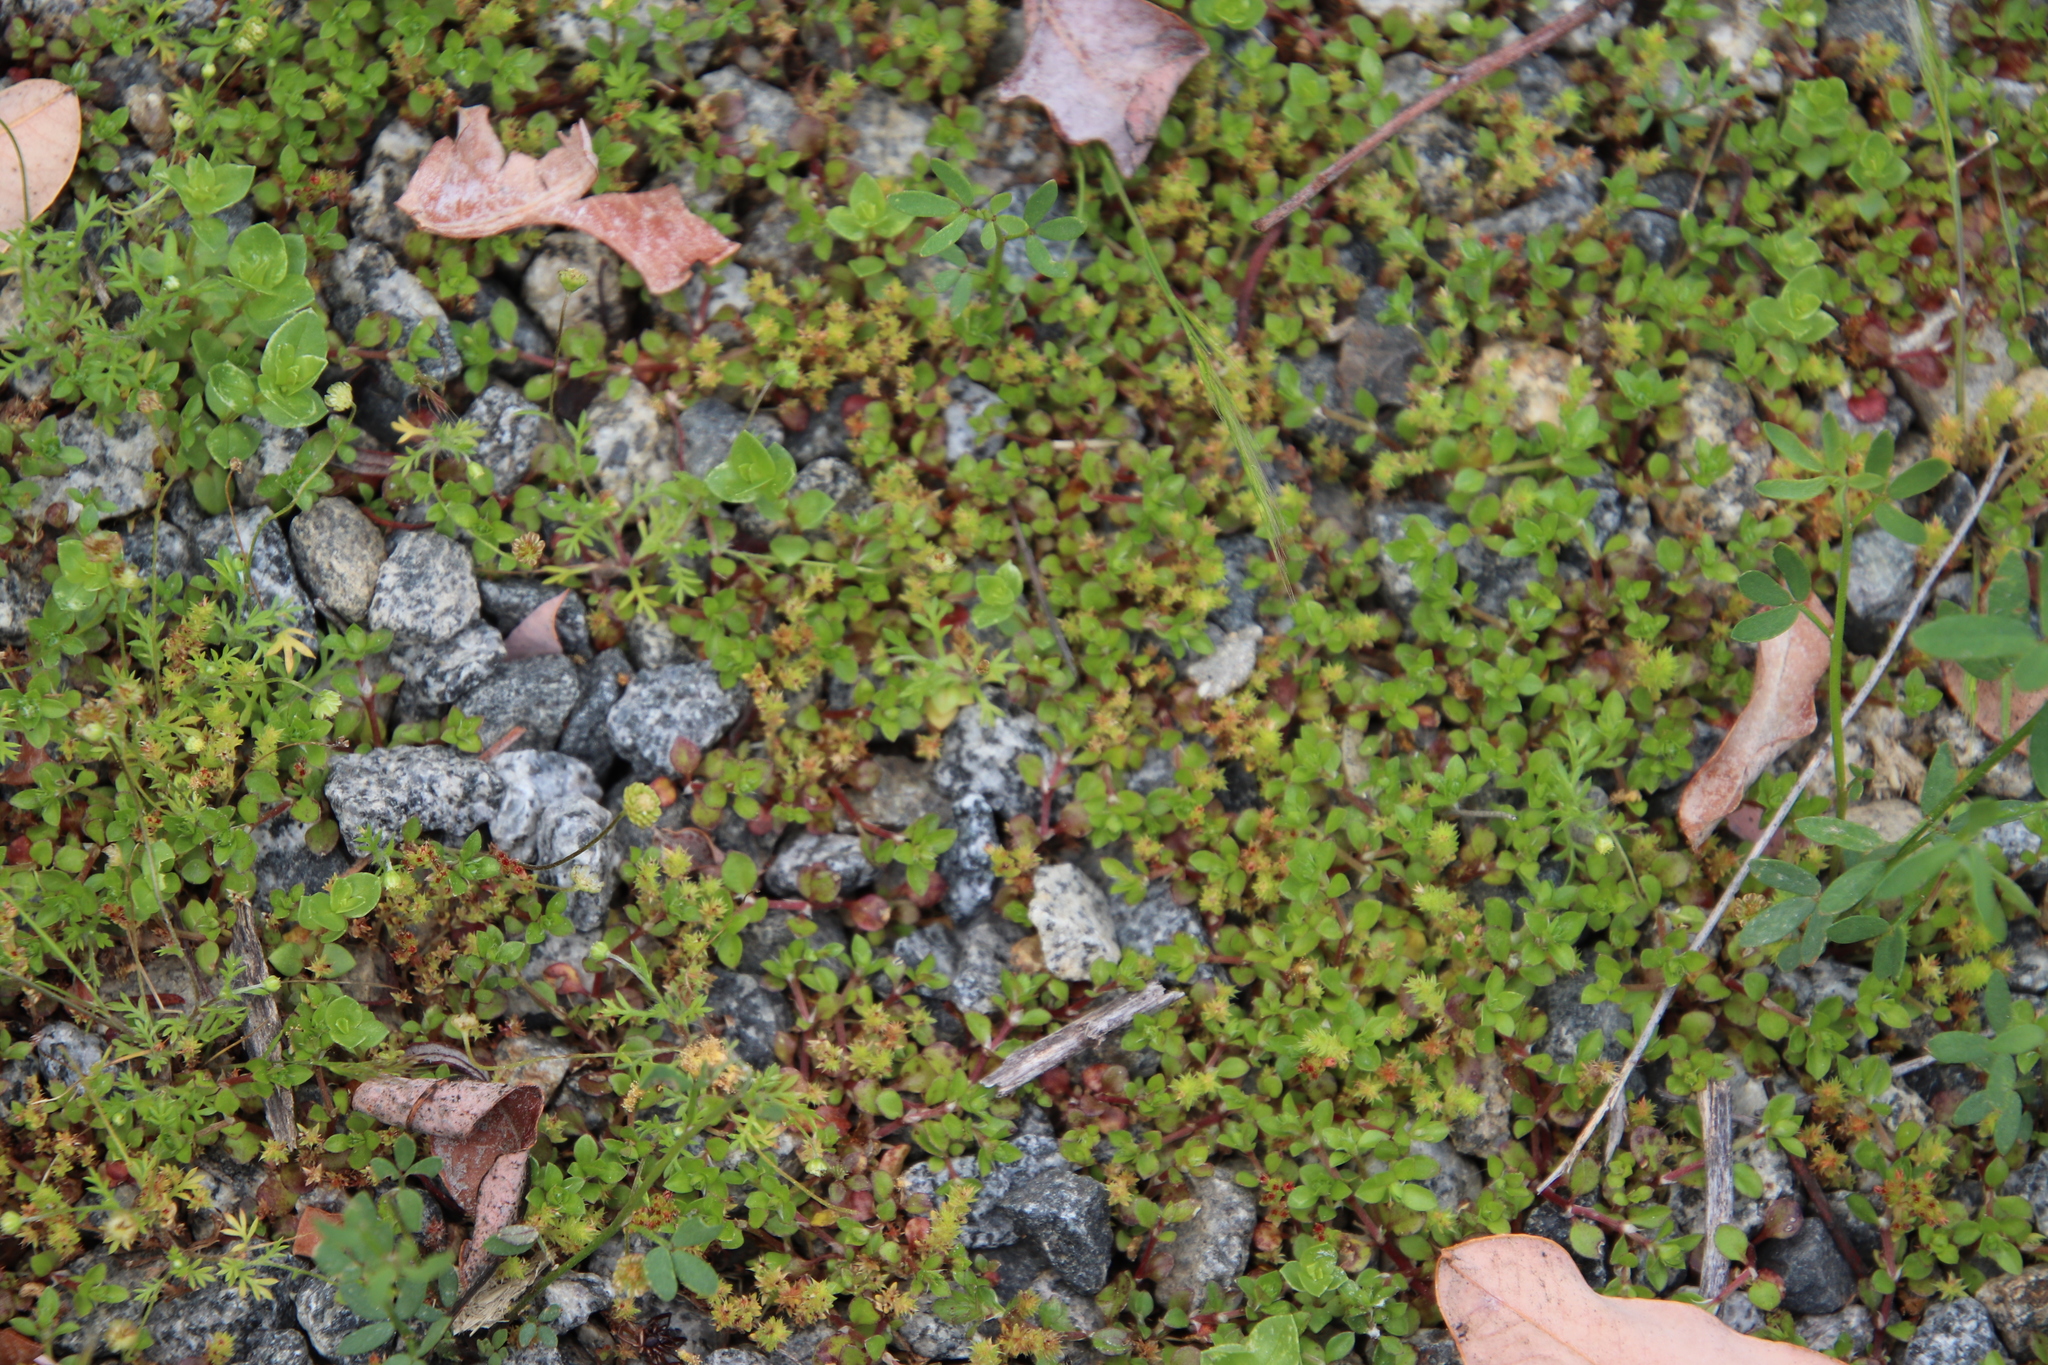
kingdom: Plantae
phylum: Tracheophyta
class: Magnoliopsida
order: Saxifragales
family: Crassulaceae
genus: Crassula
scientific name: Crassula tillaea
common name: Mossy stonecrop
